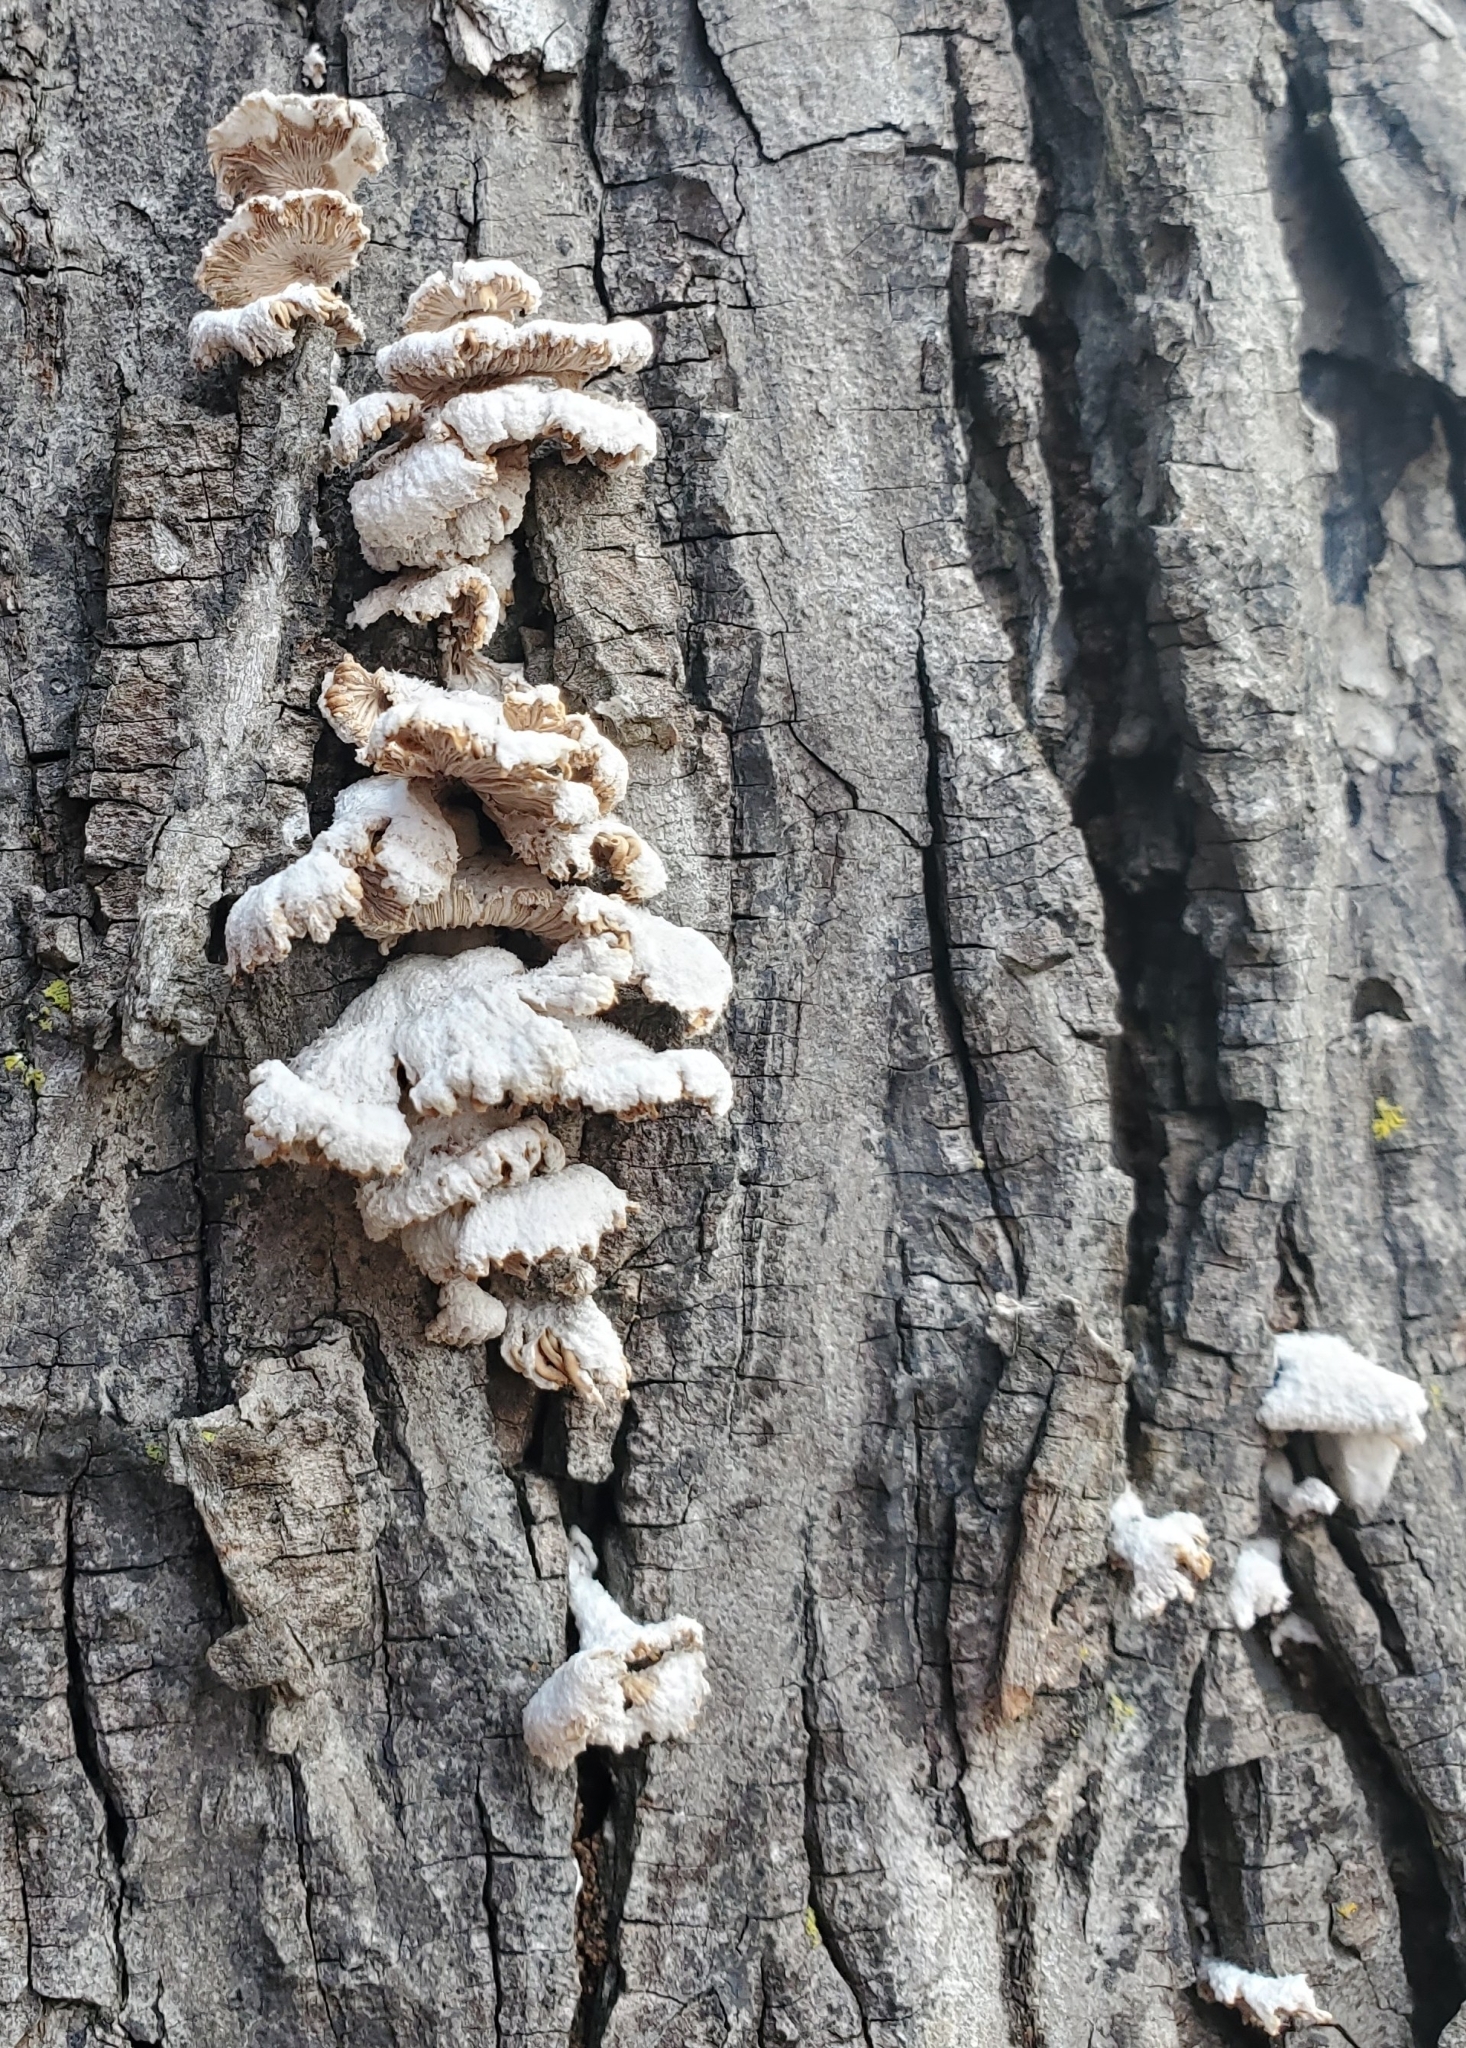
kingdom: Fungi
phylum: Basidiomycota
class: Agaricomycetes
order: Agaricales
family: Schizophyllaceae
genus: Schizophyllum
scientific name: Schizophyllum commune
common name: Common porecrust
